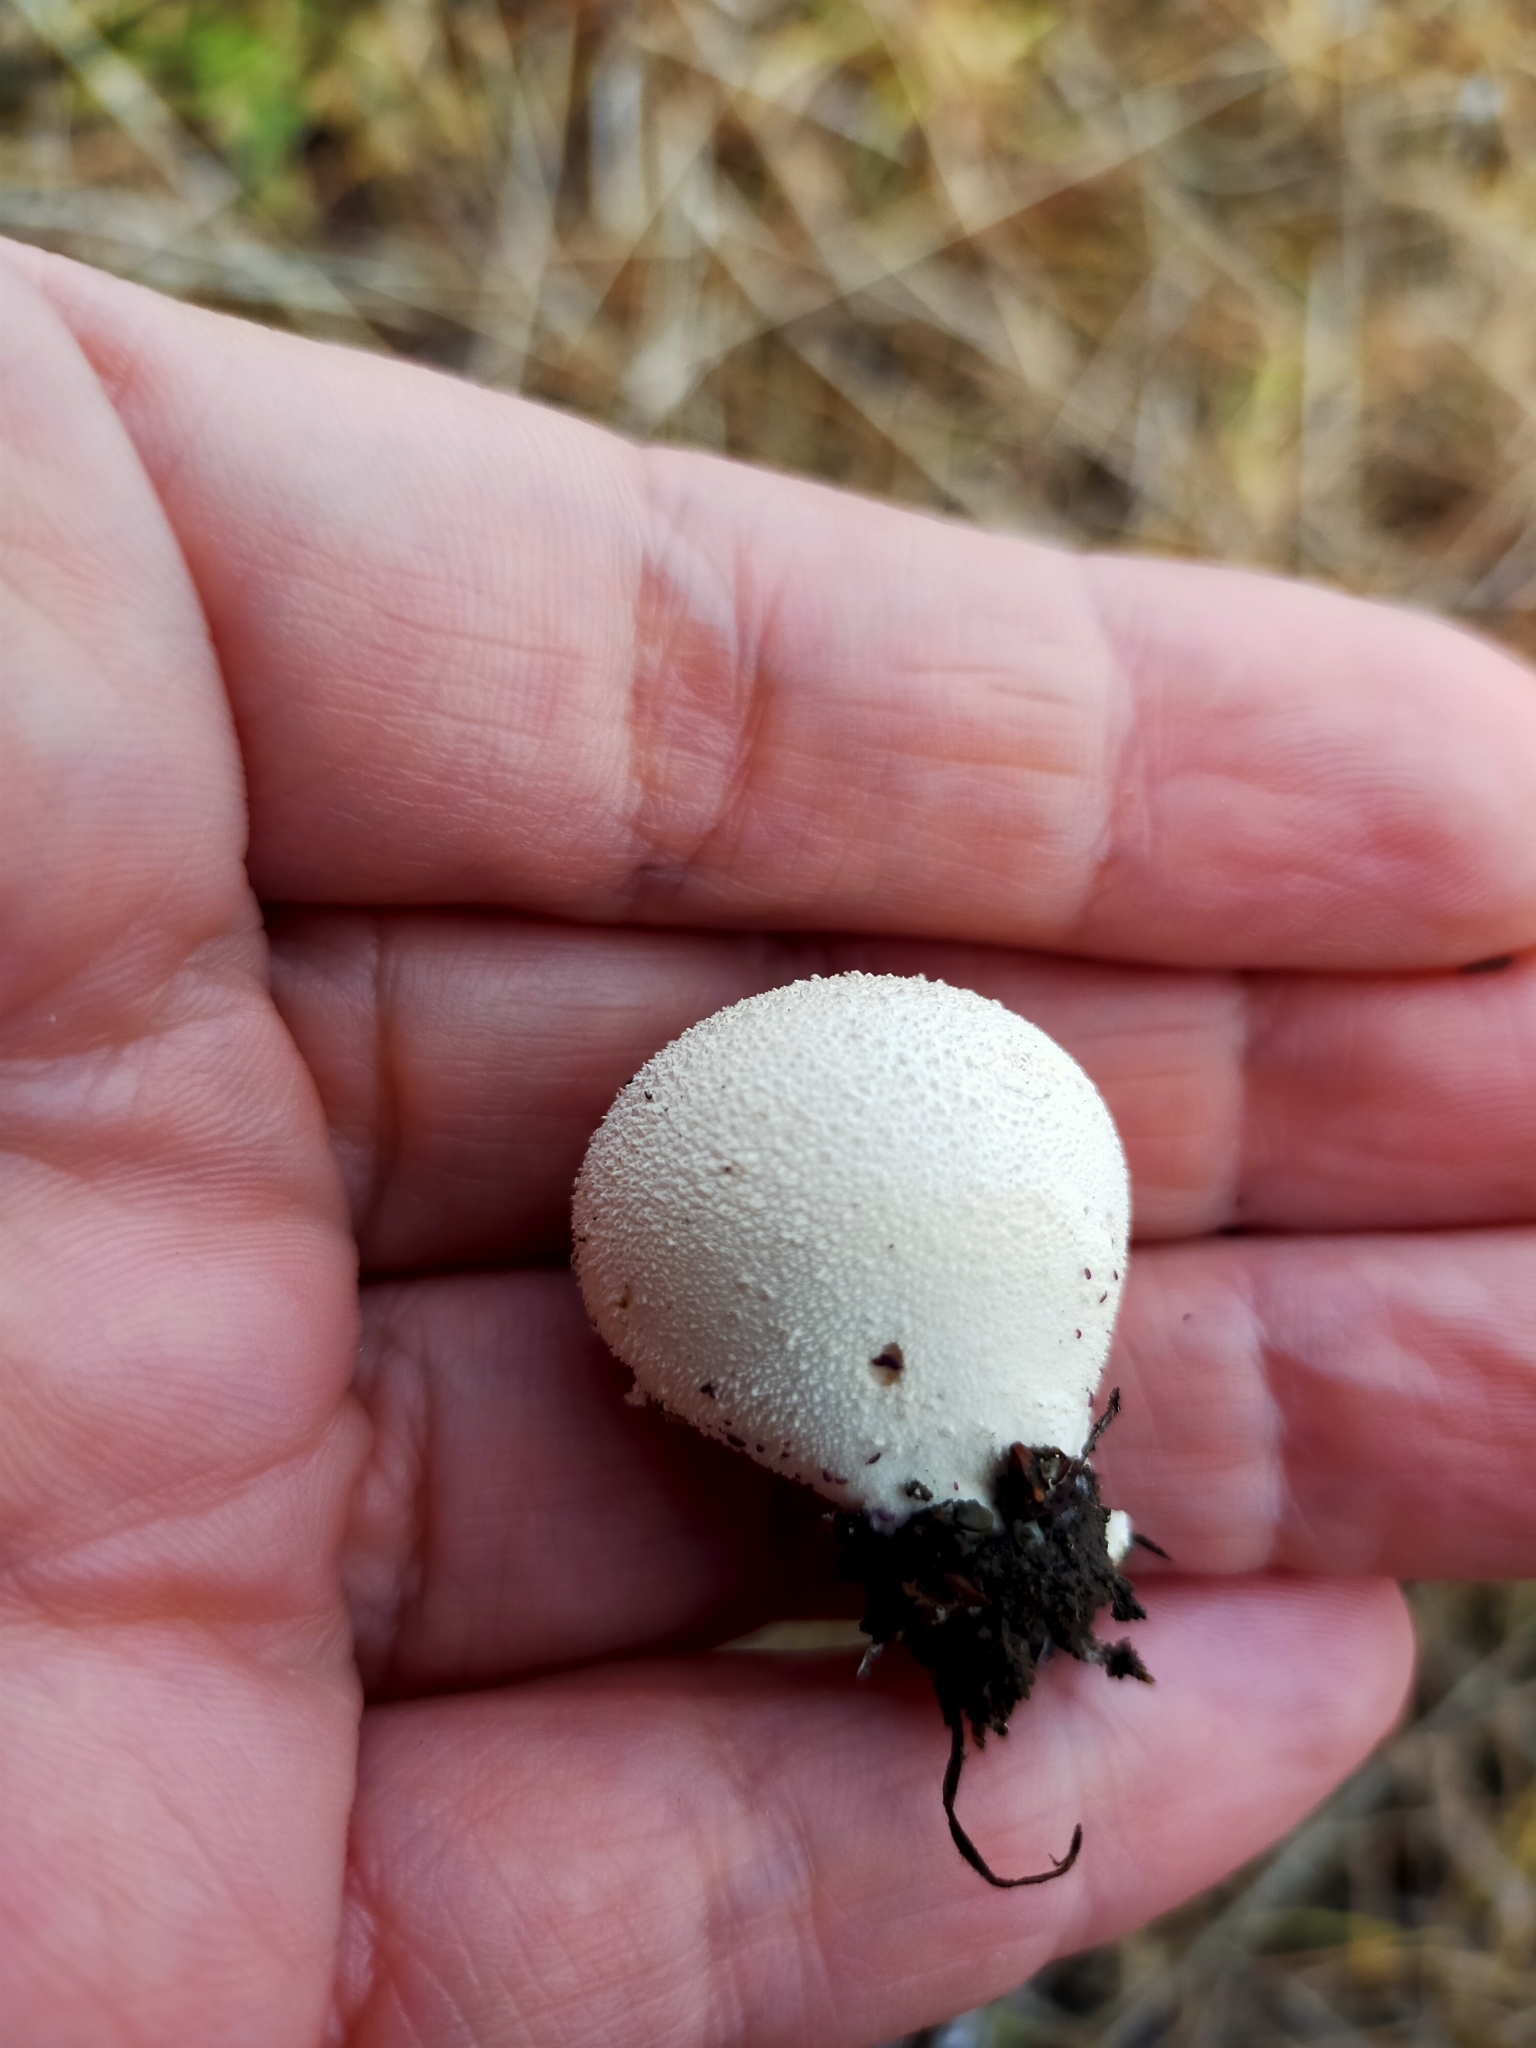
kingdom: Fungi
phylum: Basidiomycota
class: Agaricomycetes
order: Agaricales
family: Lycoperdaceae
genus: Lycoperdon
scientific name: Lycoperdon pratense
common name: Meadow puffball
